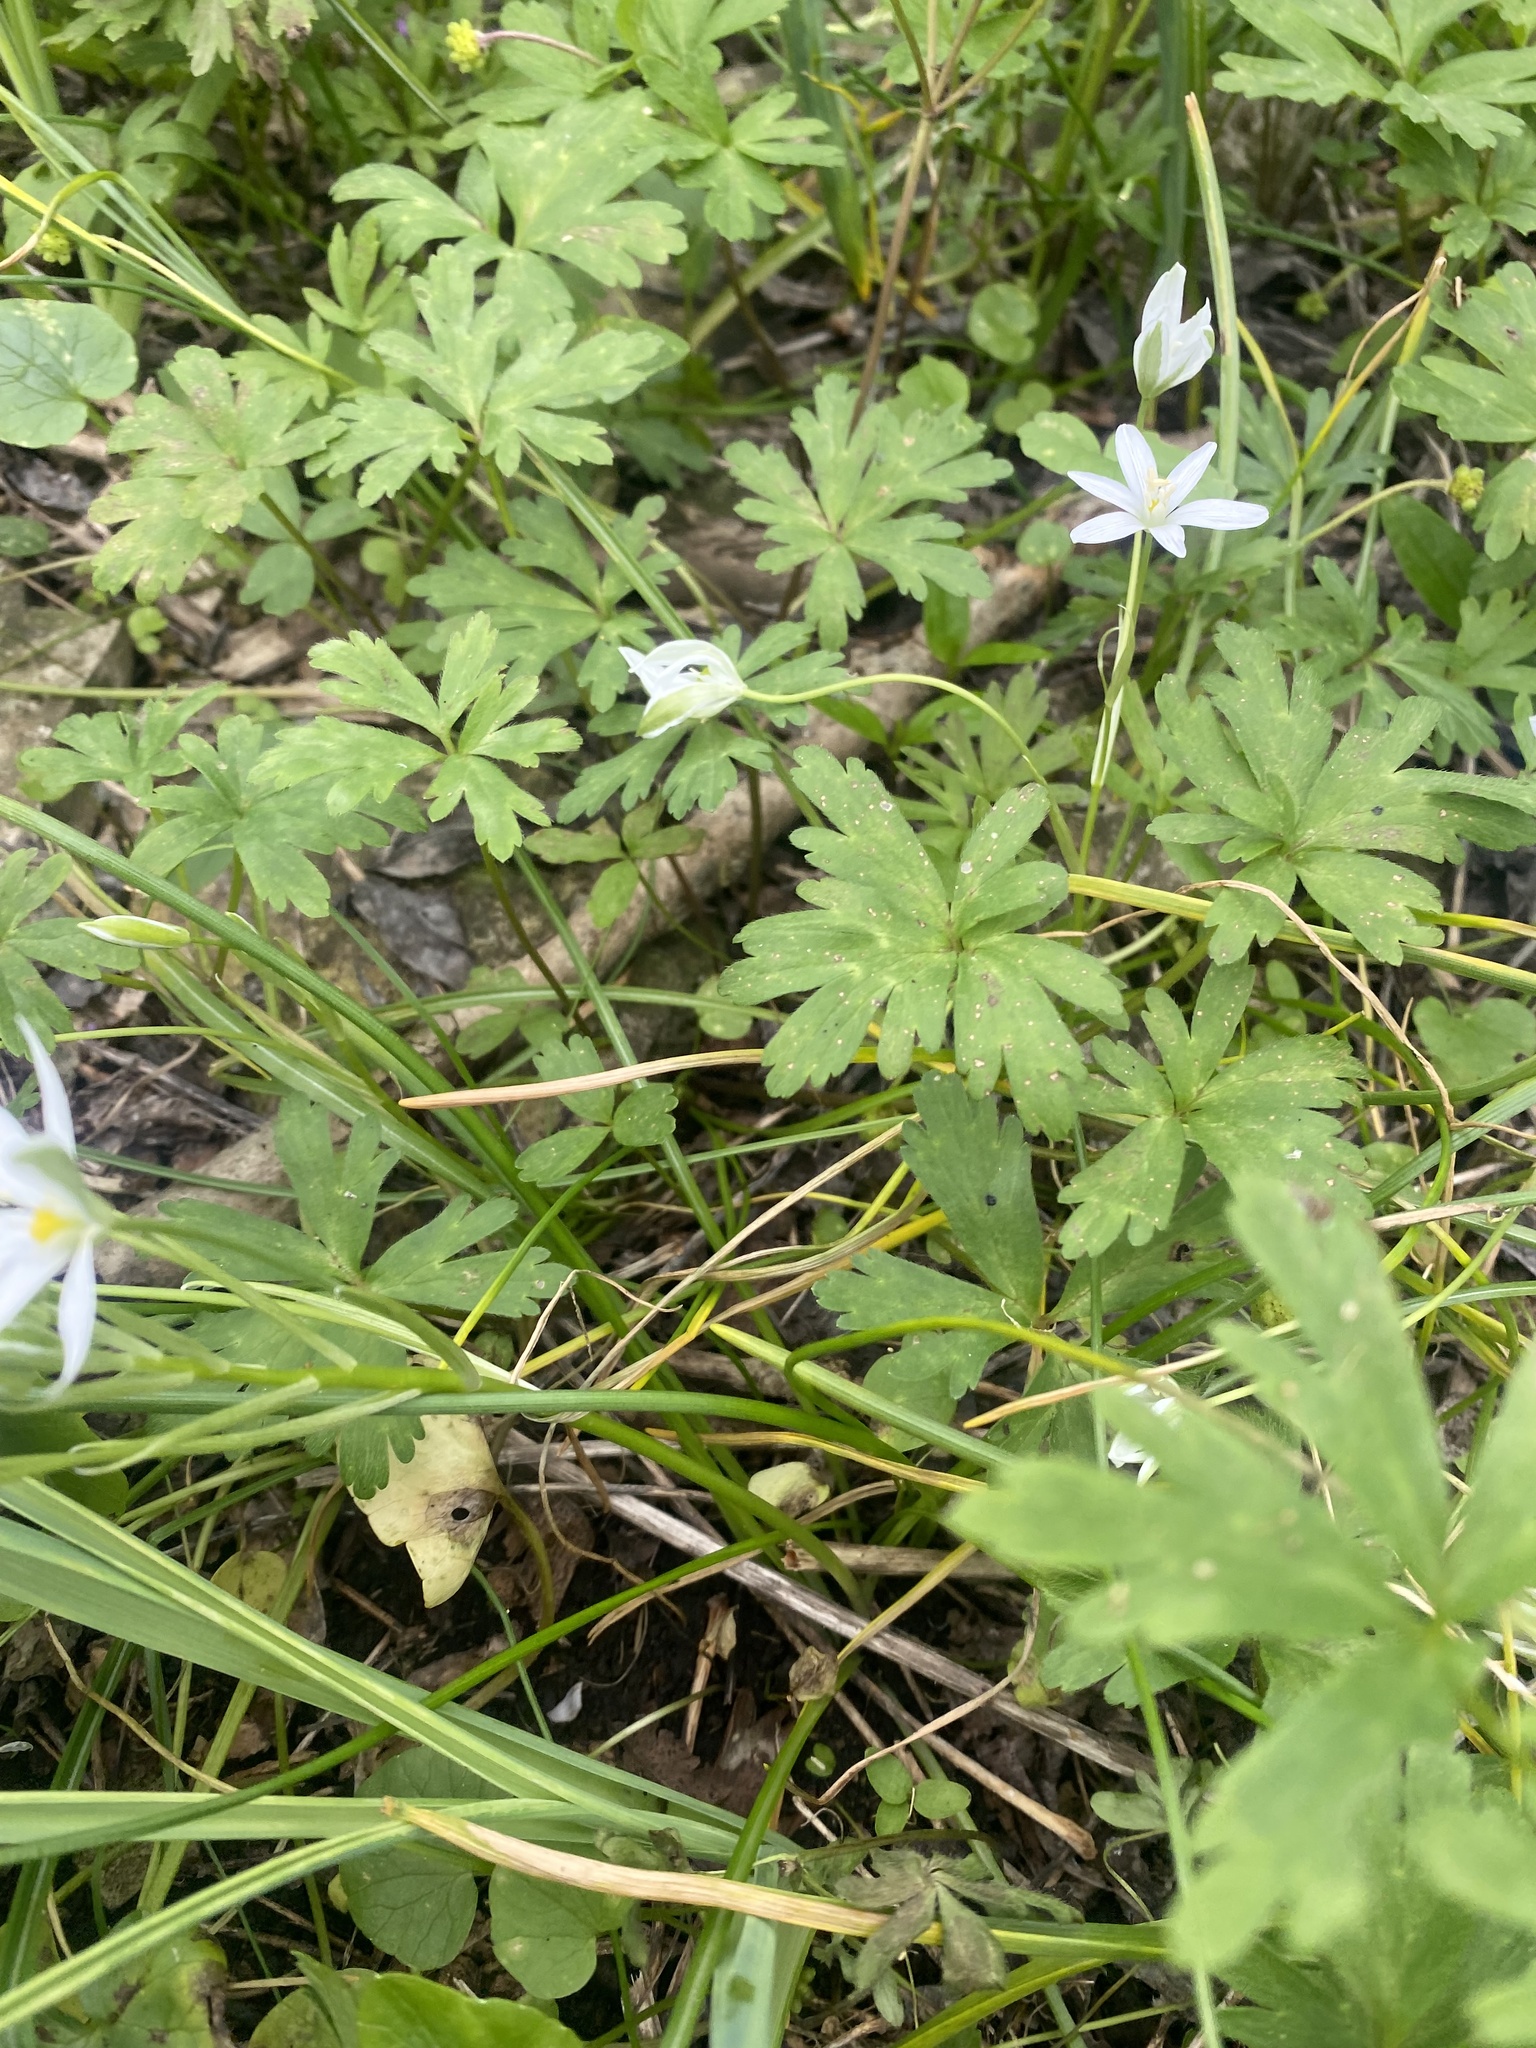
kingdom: Plantae
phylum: Tracheophyta
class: Liliopsida
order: Asparagales
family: Asparagaceae
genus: Ornithogalum
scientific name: Ornithogalum woronowii
